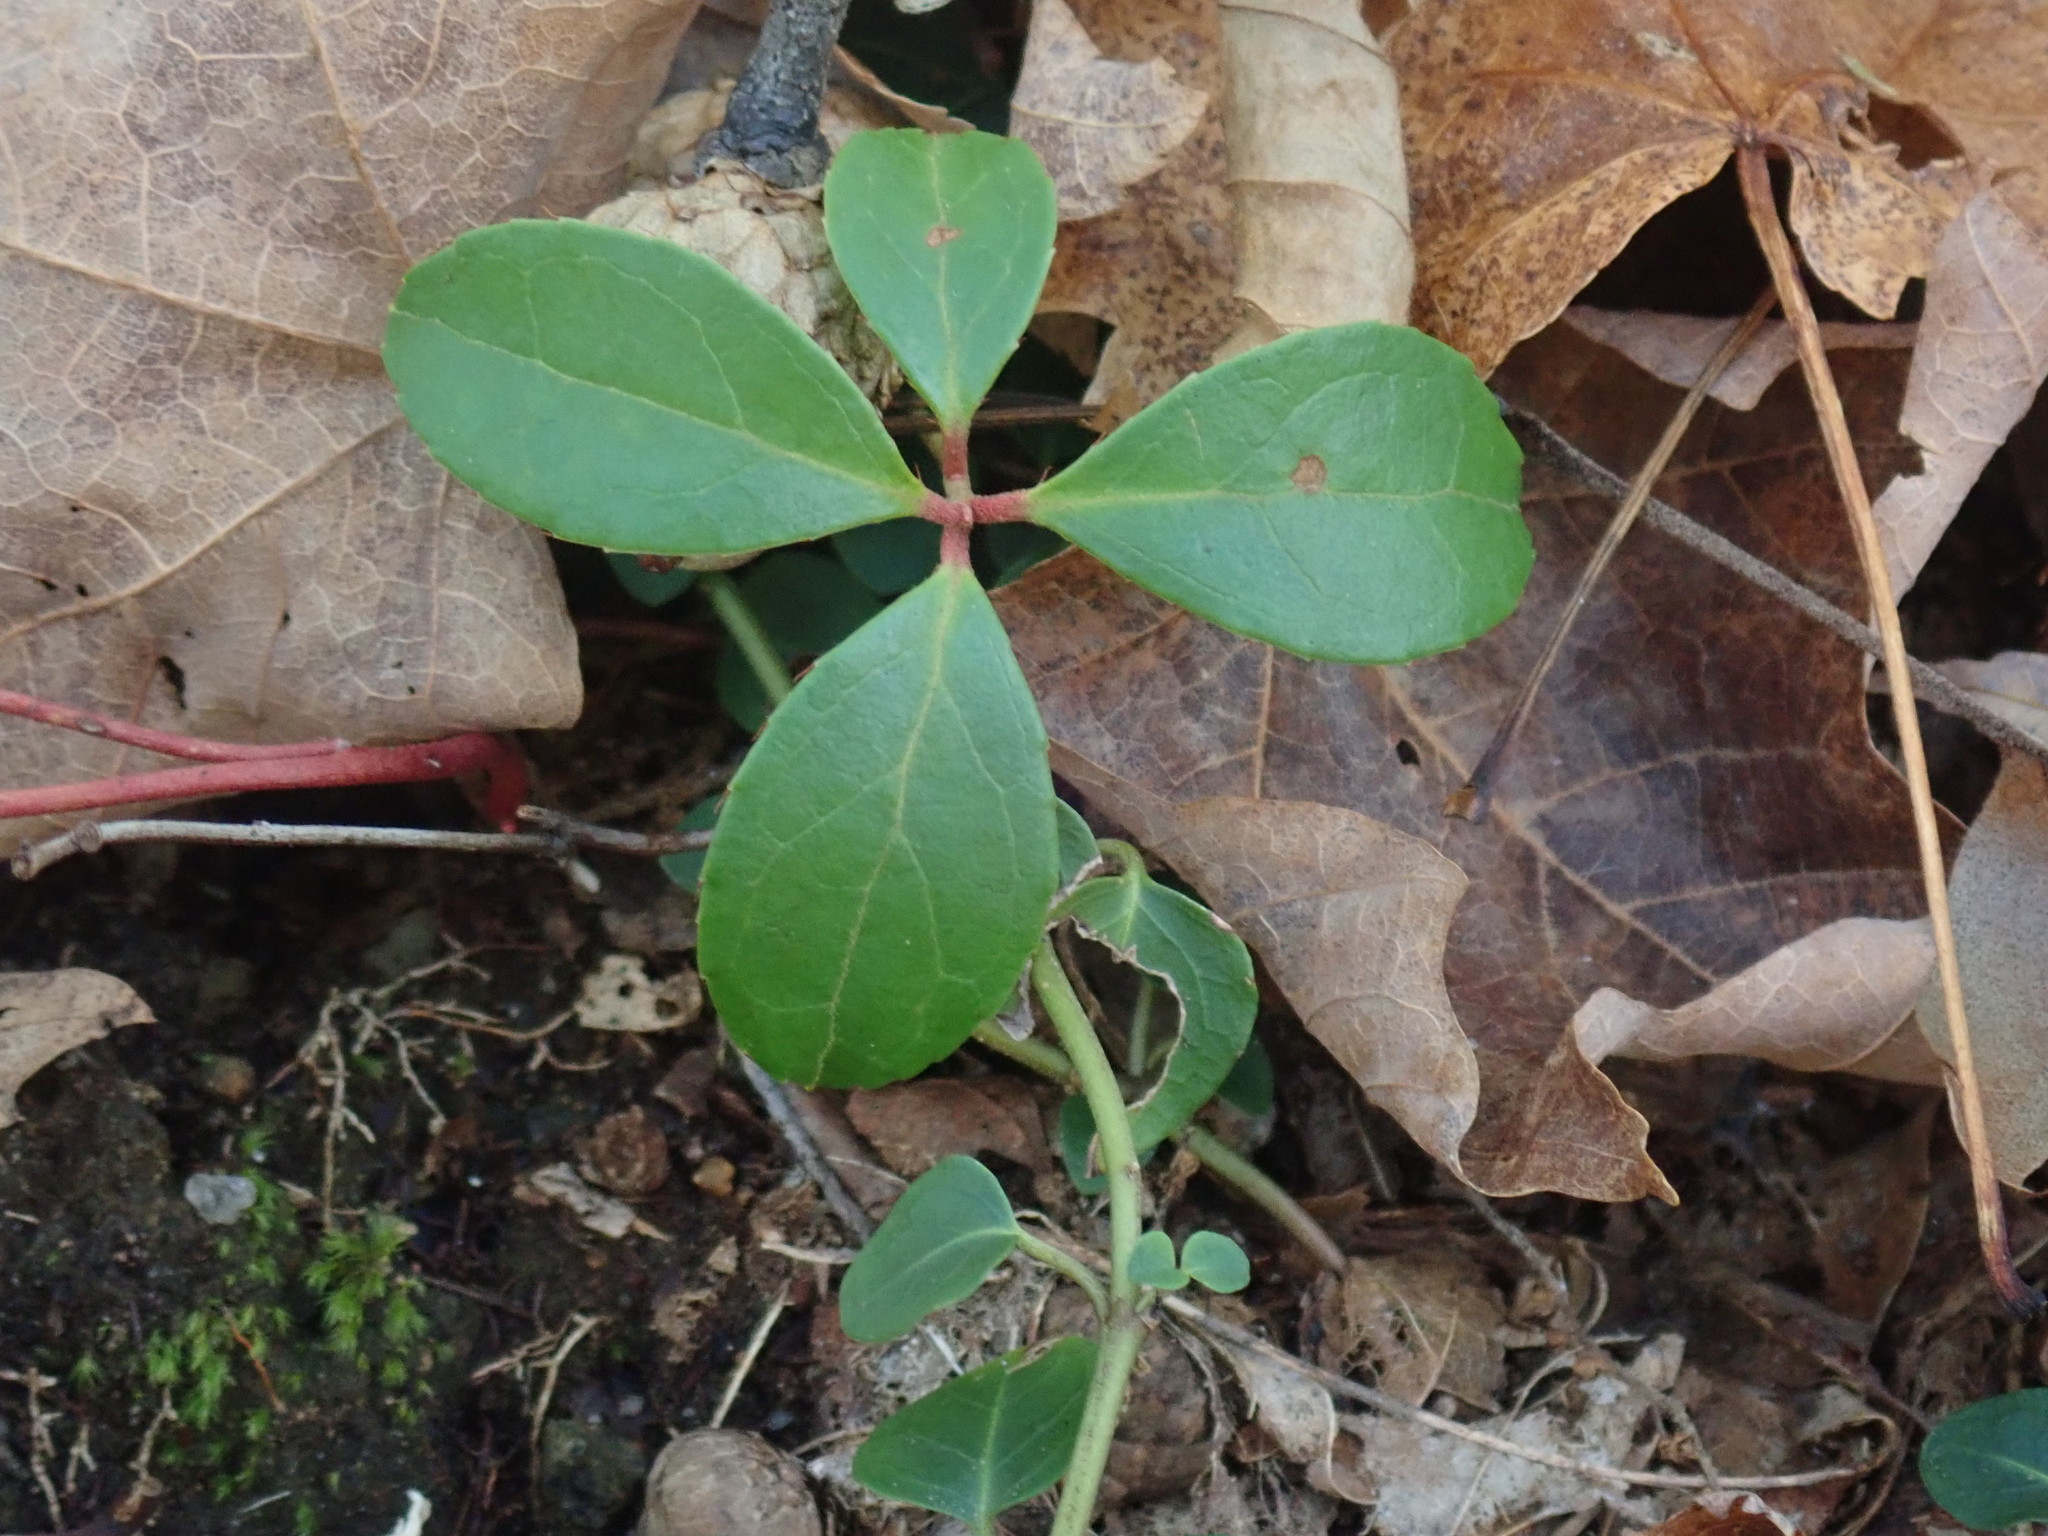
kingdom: Plantae
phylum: Tracheophyta
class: Magnoliopsida
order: Ericales
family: Ericaceae
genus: Gaultheria
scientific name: Gaultheria procumbens
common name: Checkerberry
